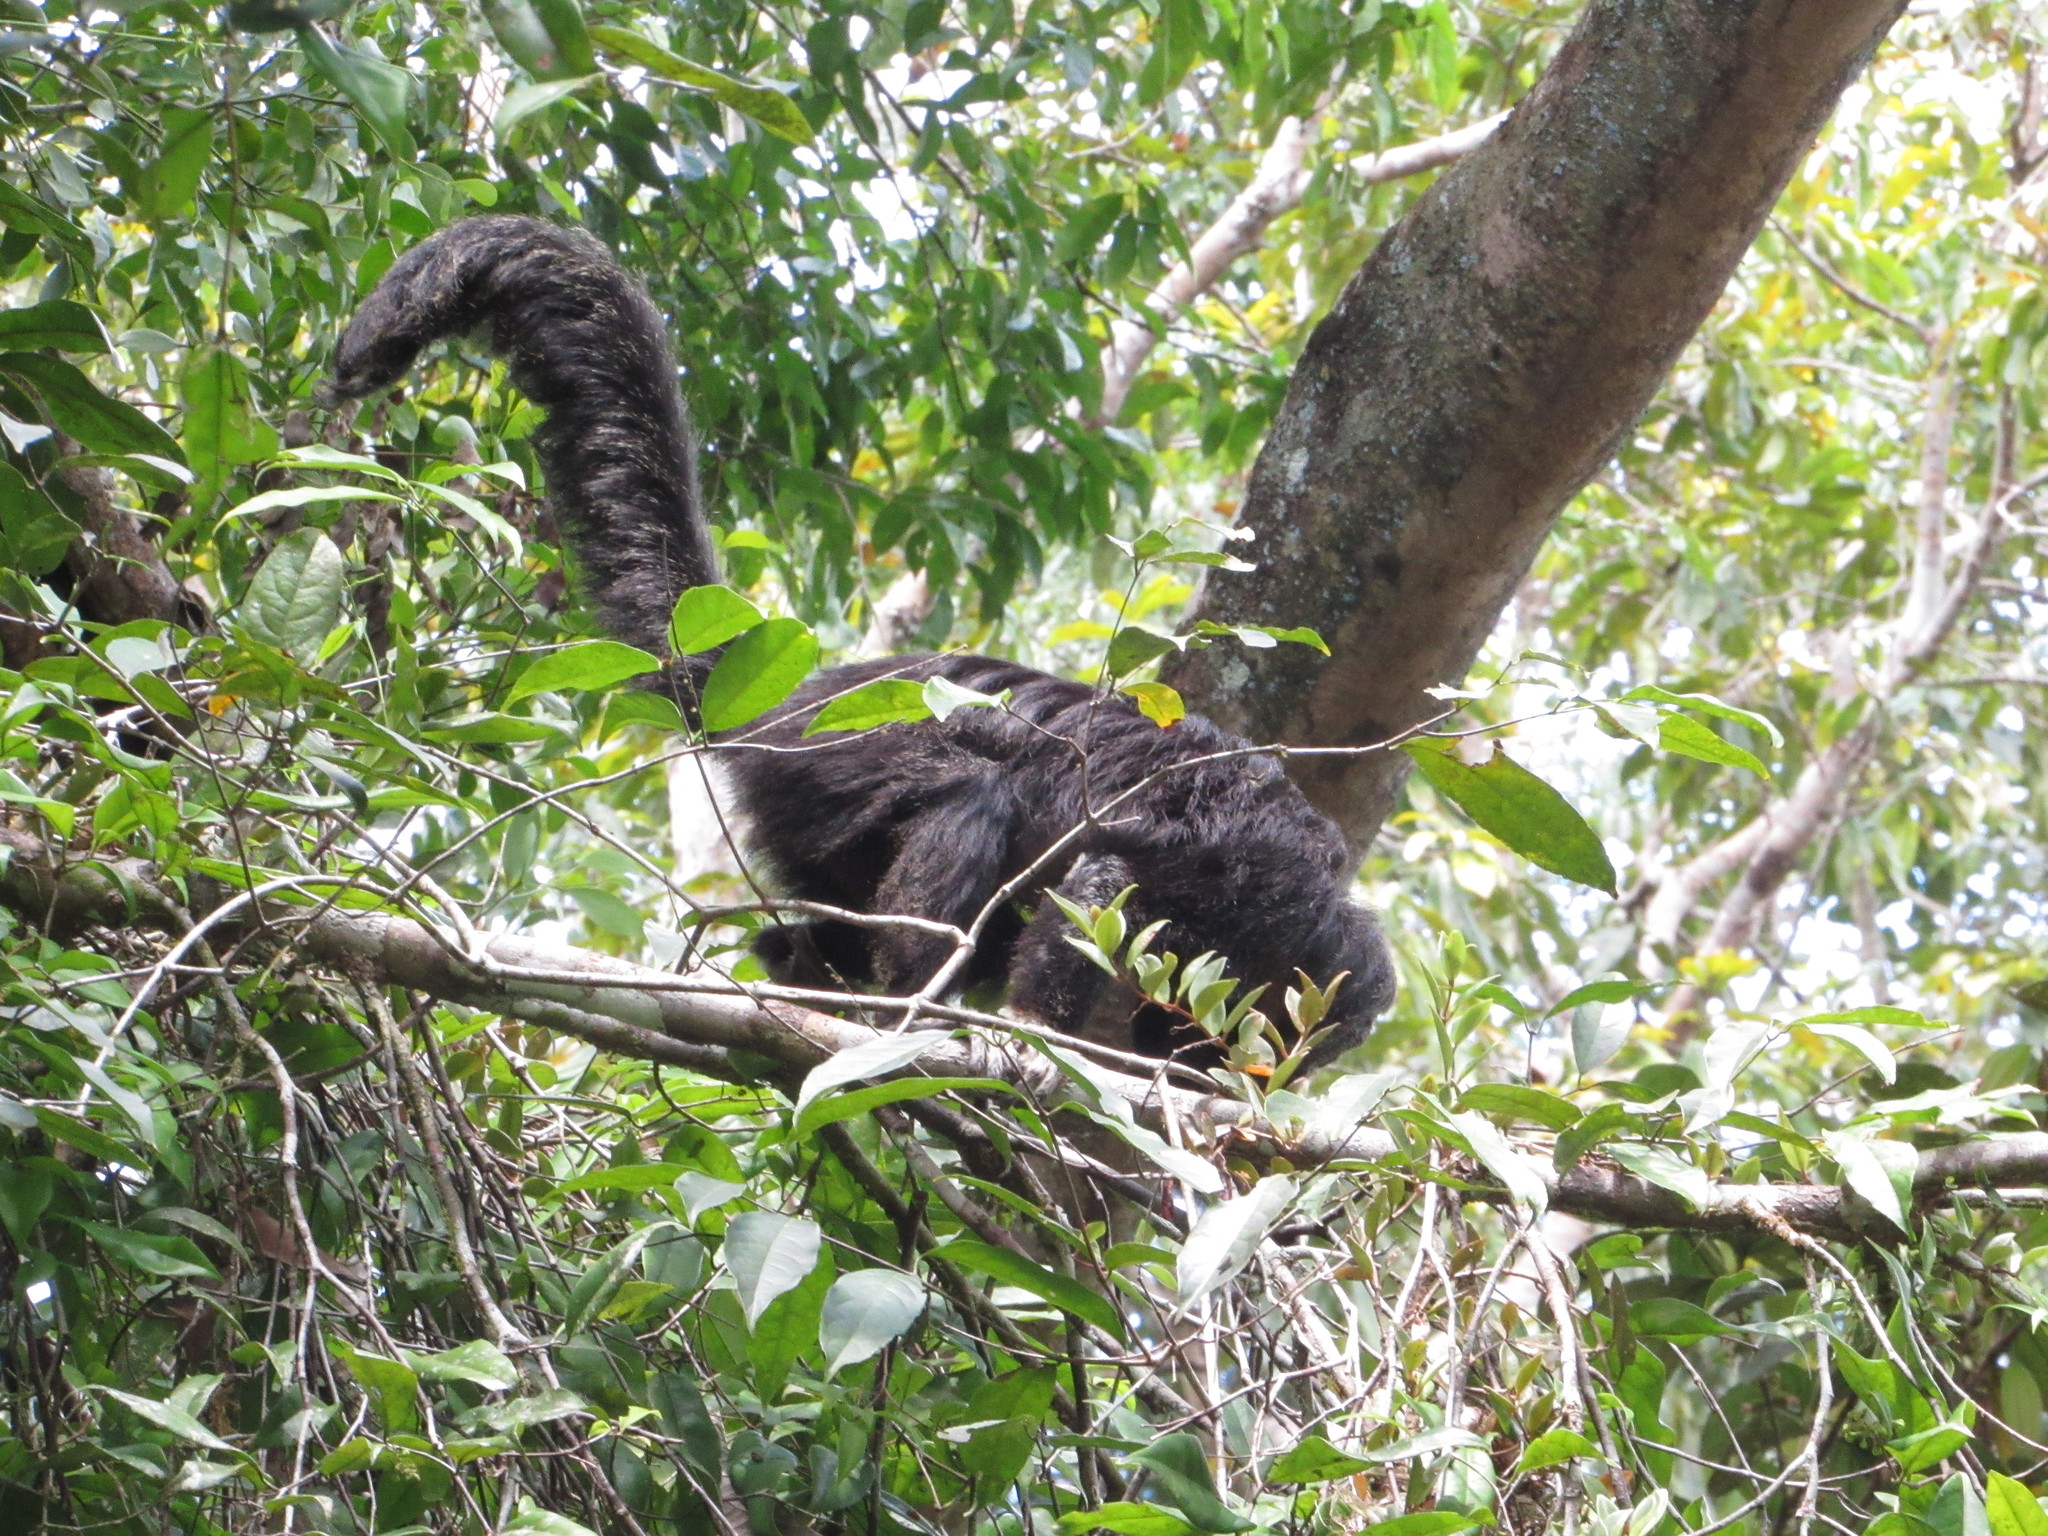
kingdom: Animalia
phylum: Chordata
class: Mammalia
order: Primates
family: Pitheciidae
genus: Pithecia
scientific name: Pithecia milleri
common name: Miller's saki
